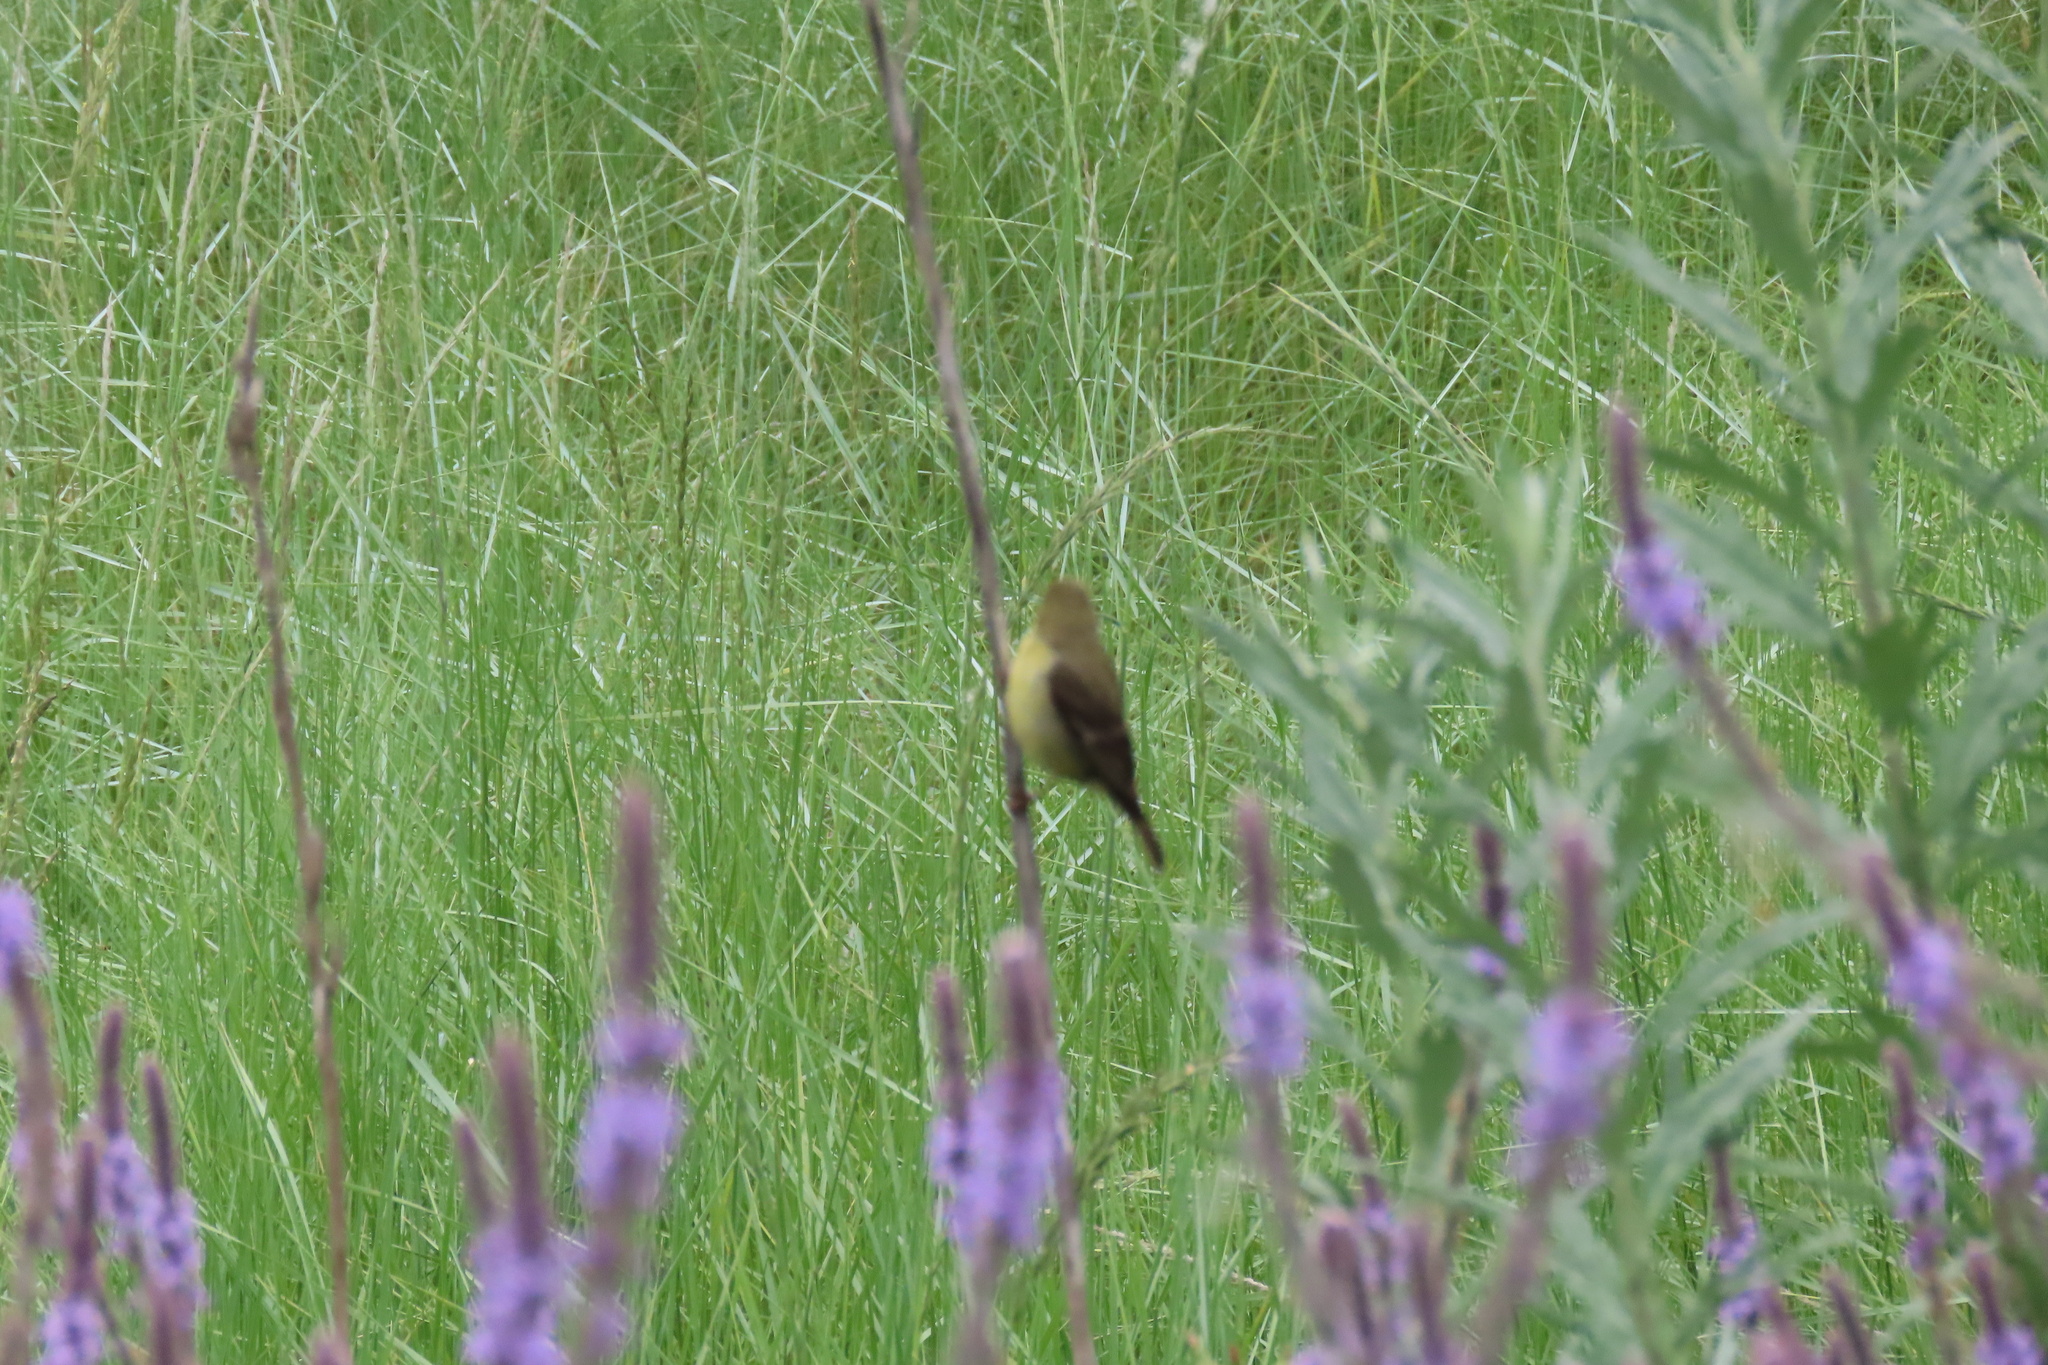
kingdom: Animalia
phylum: Chordata
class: Aves
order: Passeriformes
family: Fringillidae
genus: Spinus
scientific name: Spinus psaltria
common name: Lesser goldfinch
